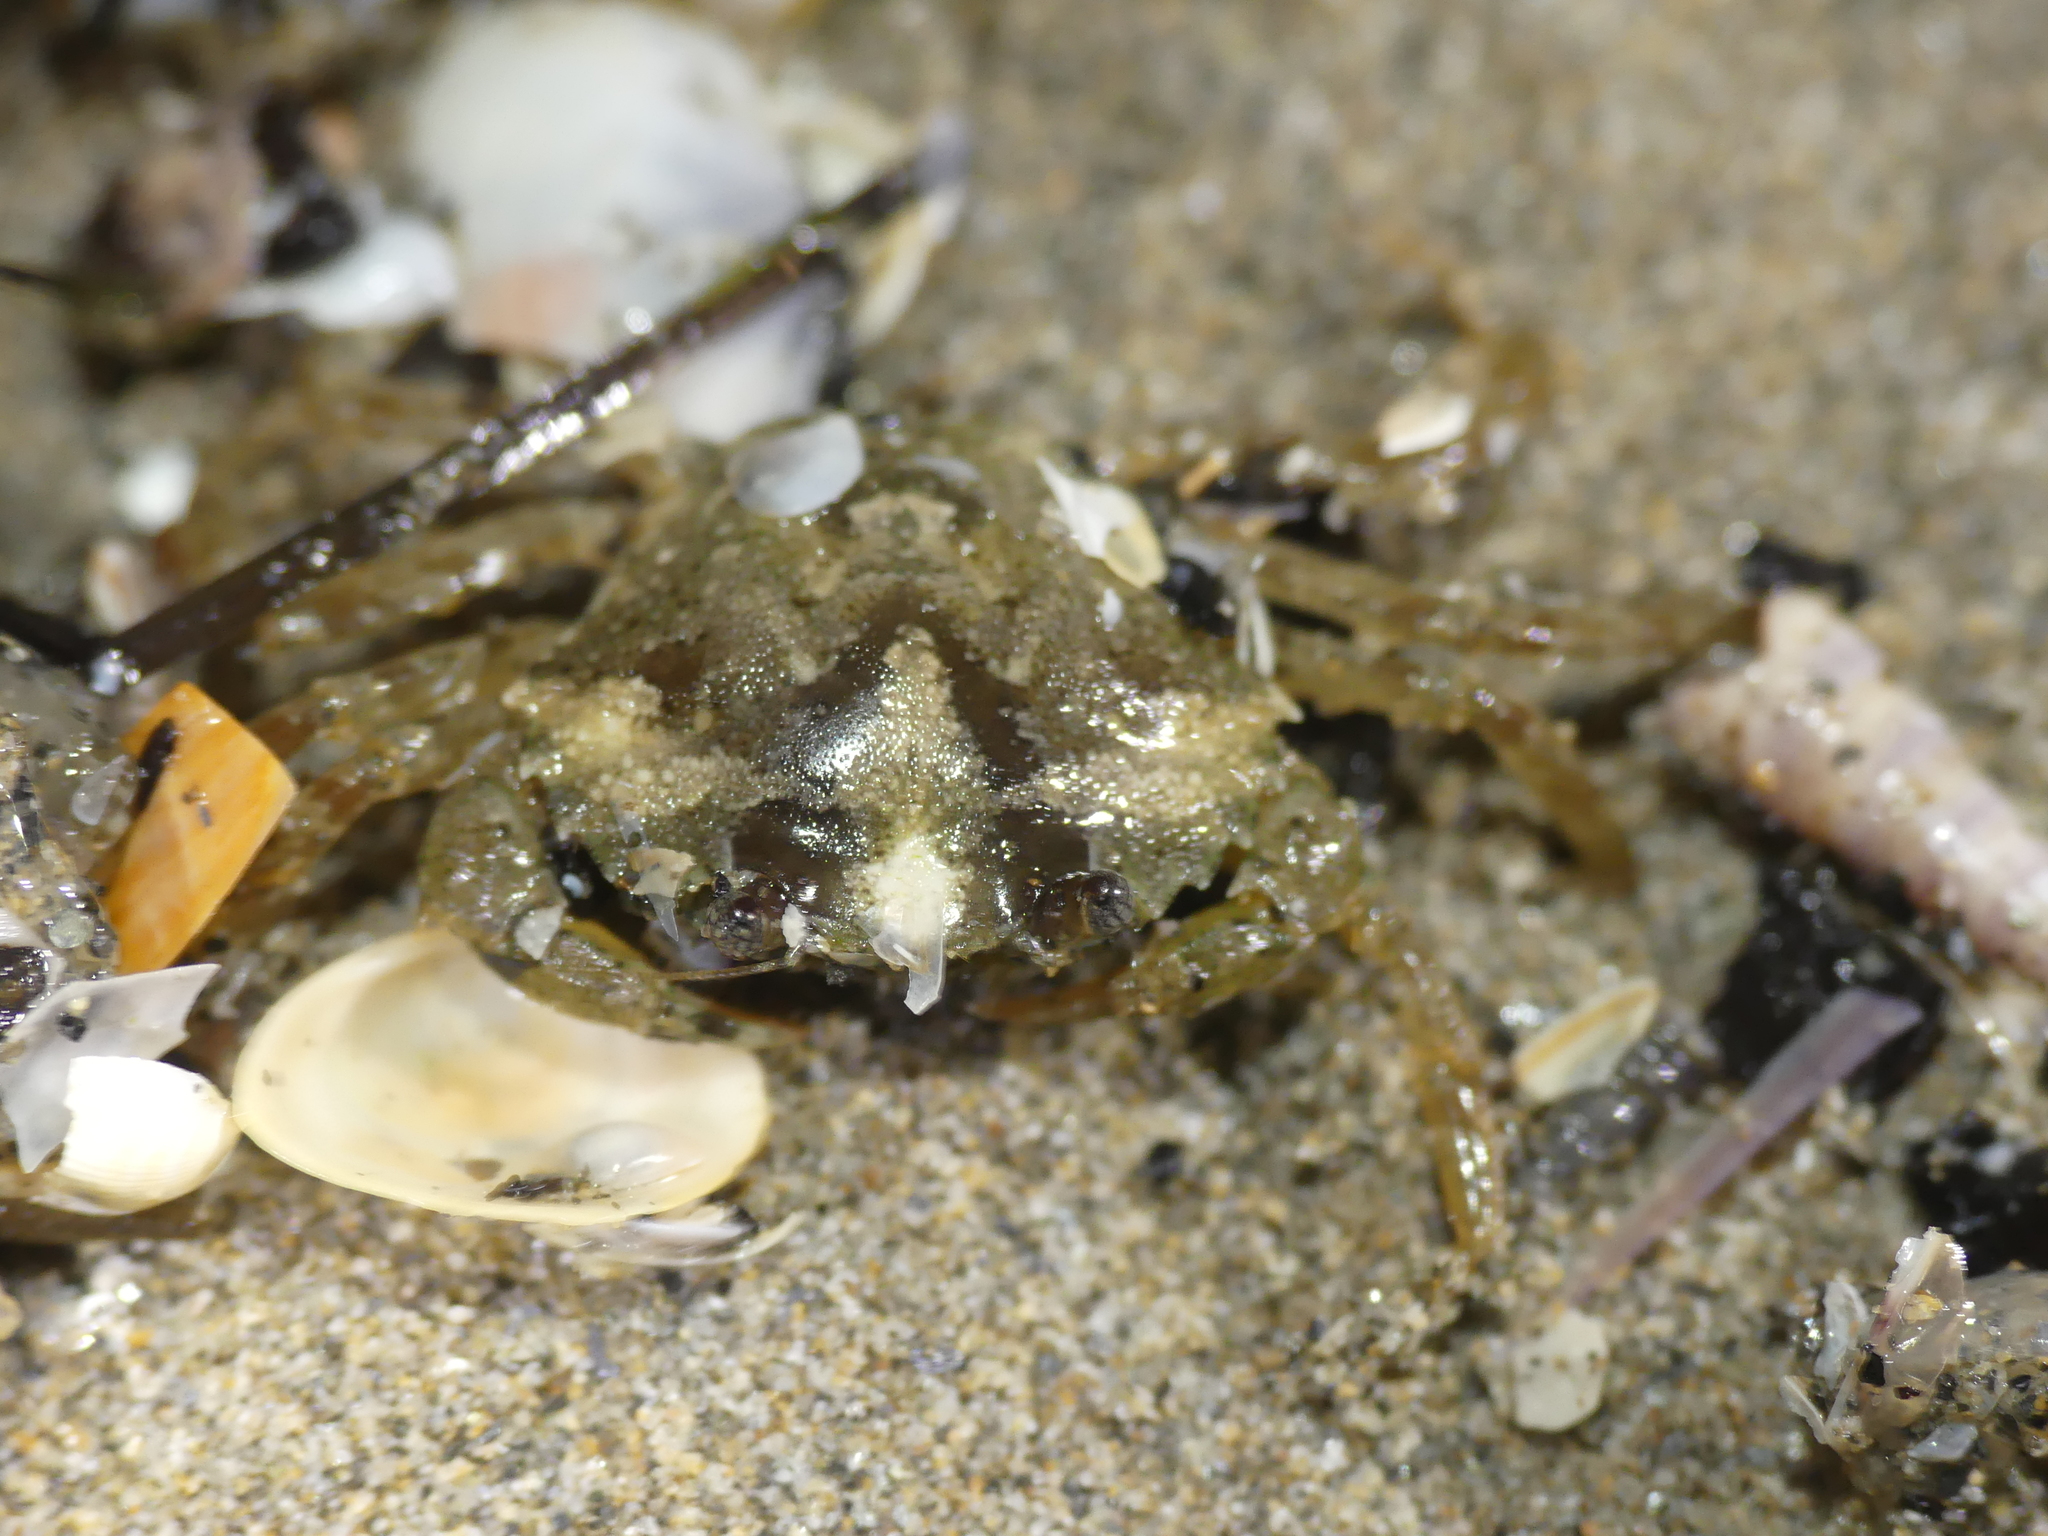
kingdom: Animalia
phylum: Arthropoda
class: Malacostraca
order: Decapoda
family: Carcinidae
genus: Carcinus
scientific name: Carcinus aestuarii
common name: Mediterranean green crab
